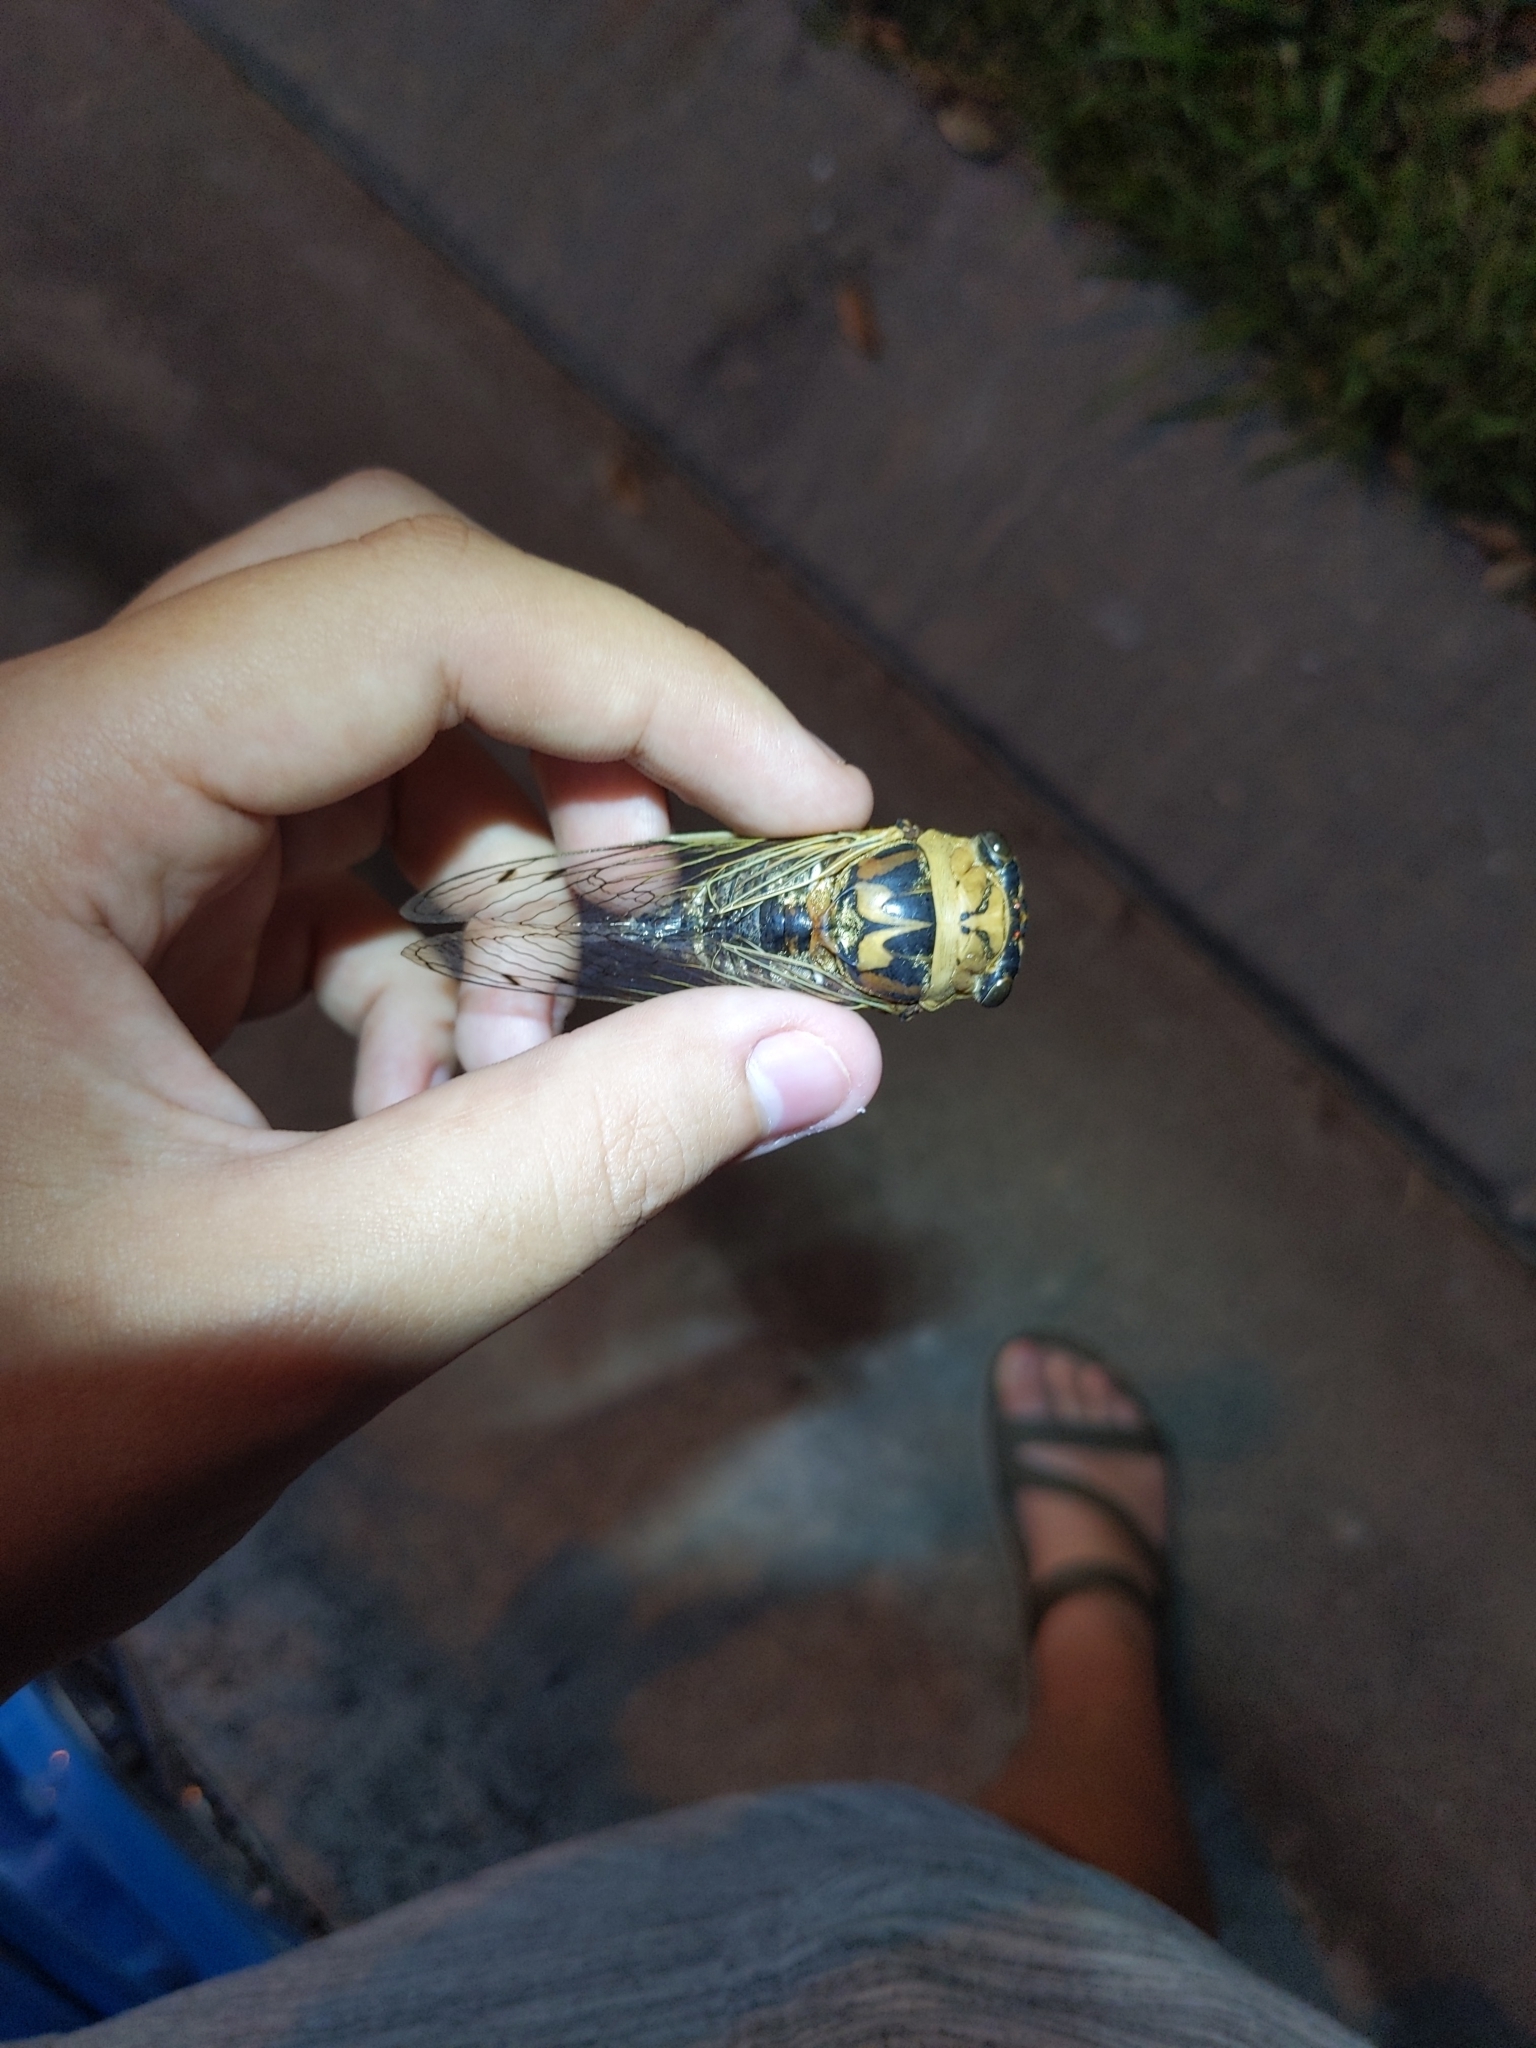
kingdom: Animalia
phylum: Arthropoda
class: Insecta
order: Hemiptera
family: Cicadidae
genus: Megatibicen
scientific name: Megatibicen resh
